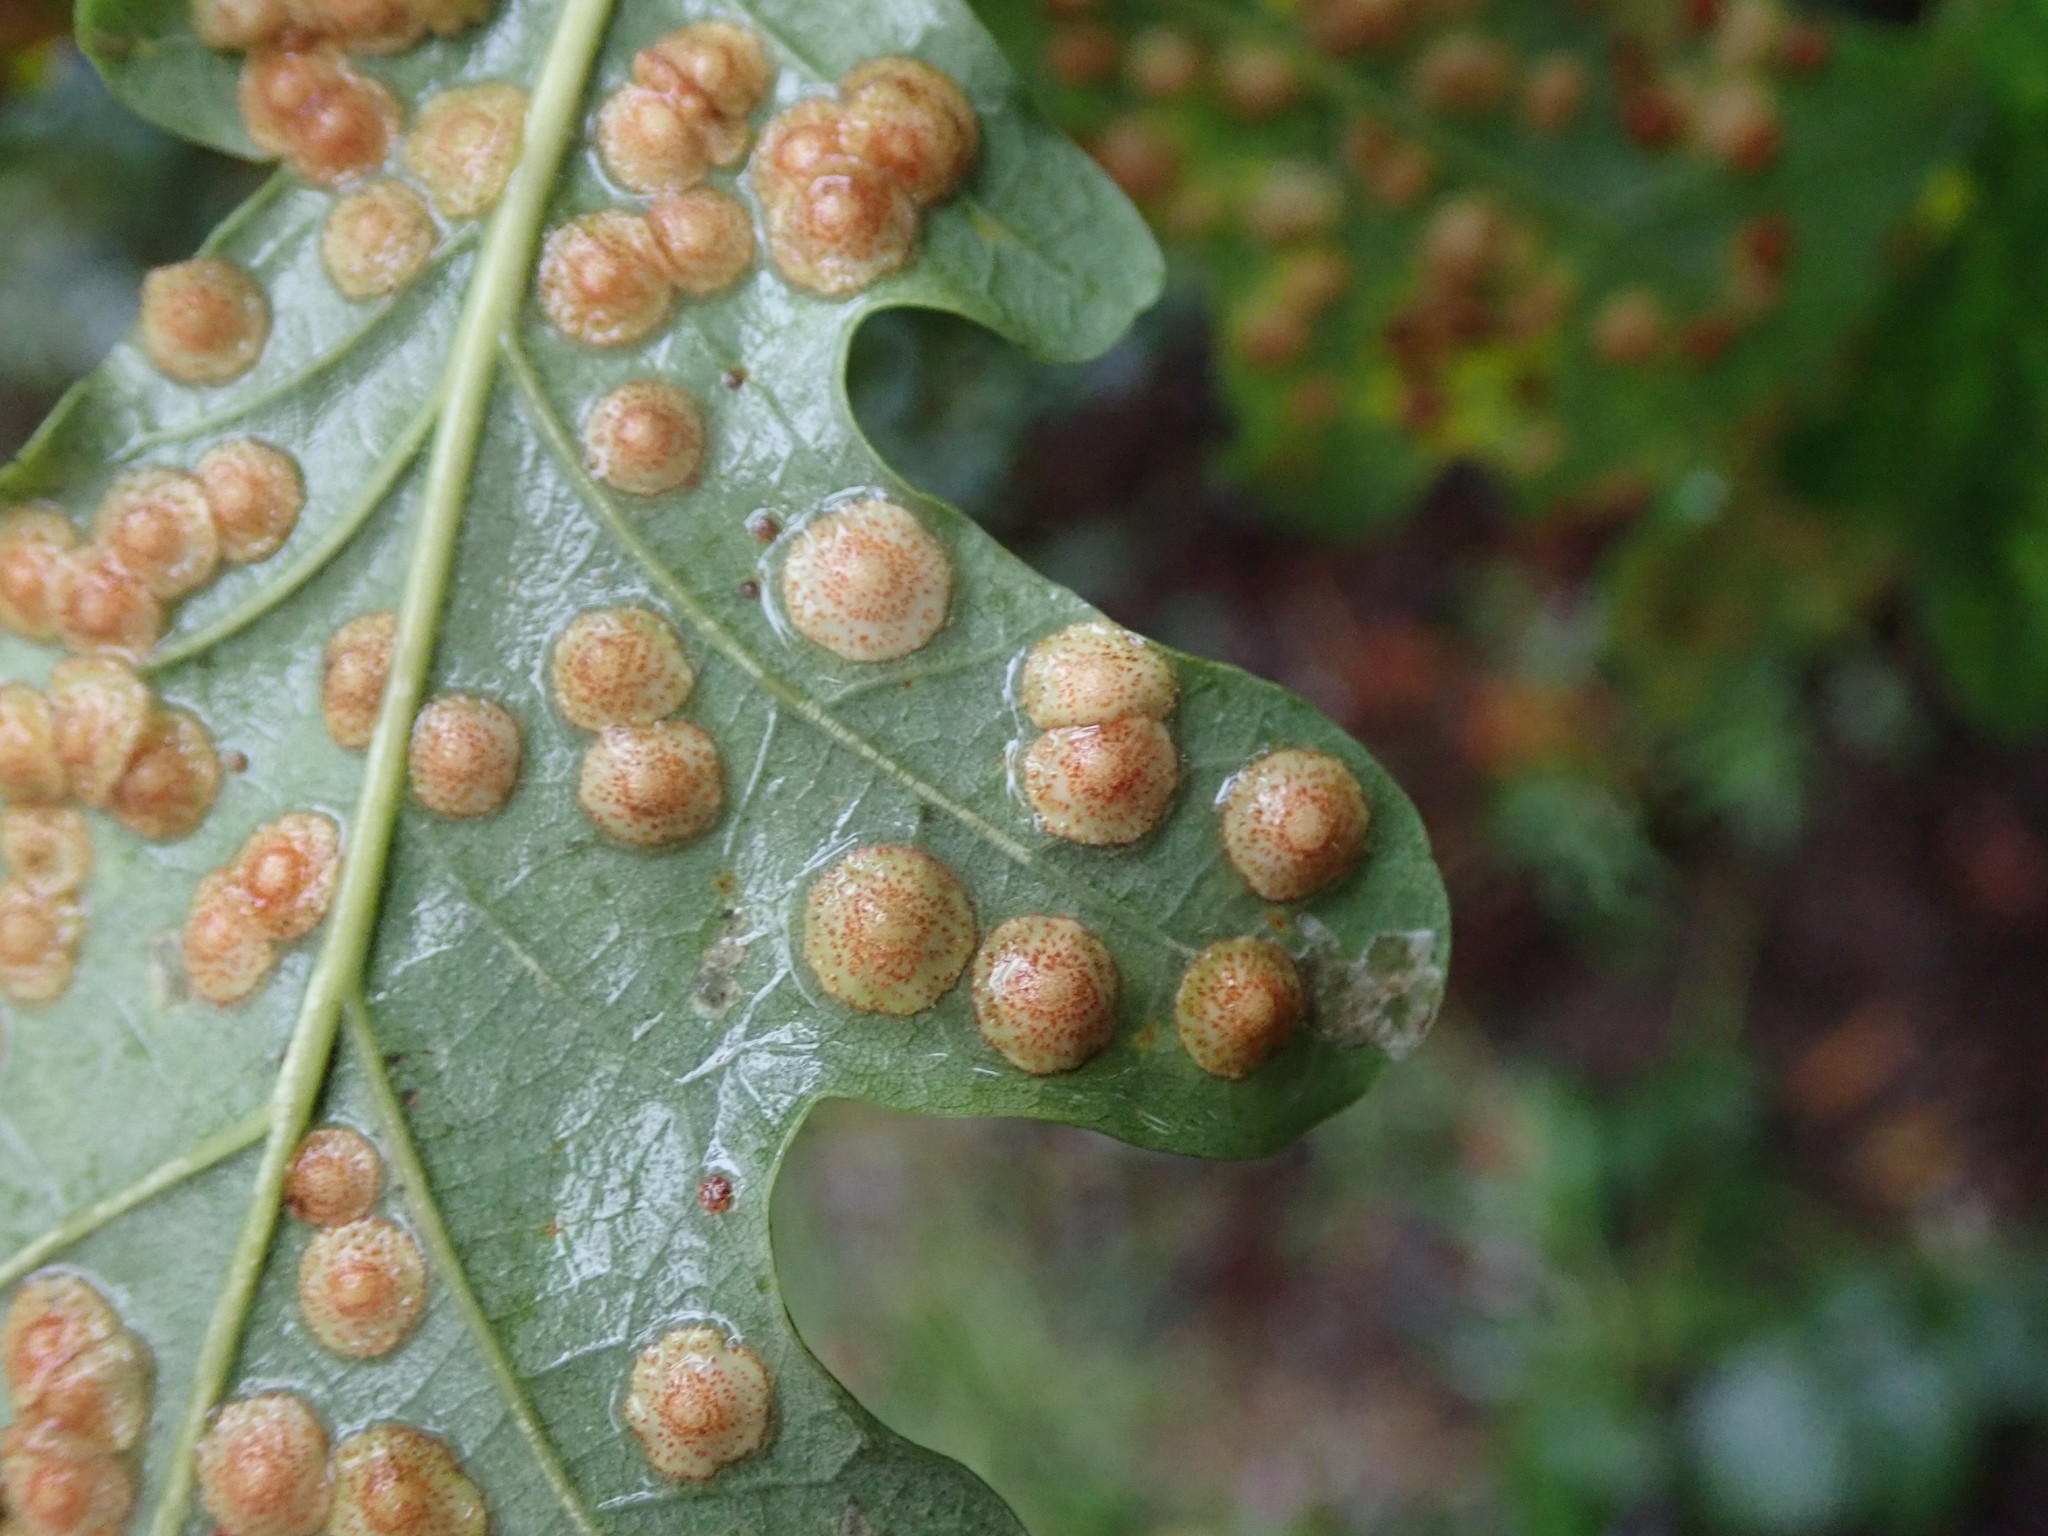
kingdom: Animalia
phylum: Arthropoda
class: Insecta
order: Hymenoptera
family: Cynipidae
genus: Neuroterus
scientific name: Neuroterus quercusbaccarum
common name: Common spangle gall
